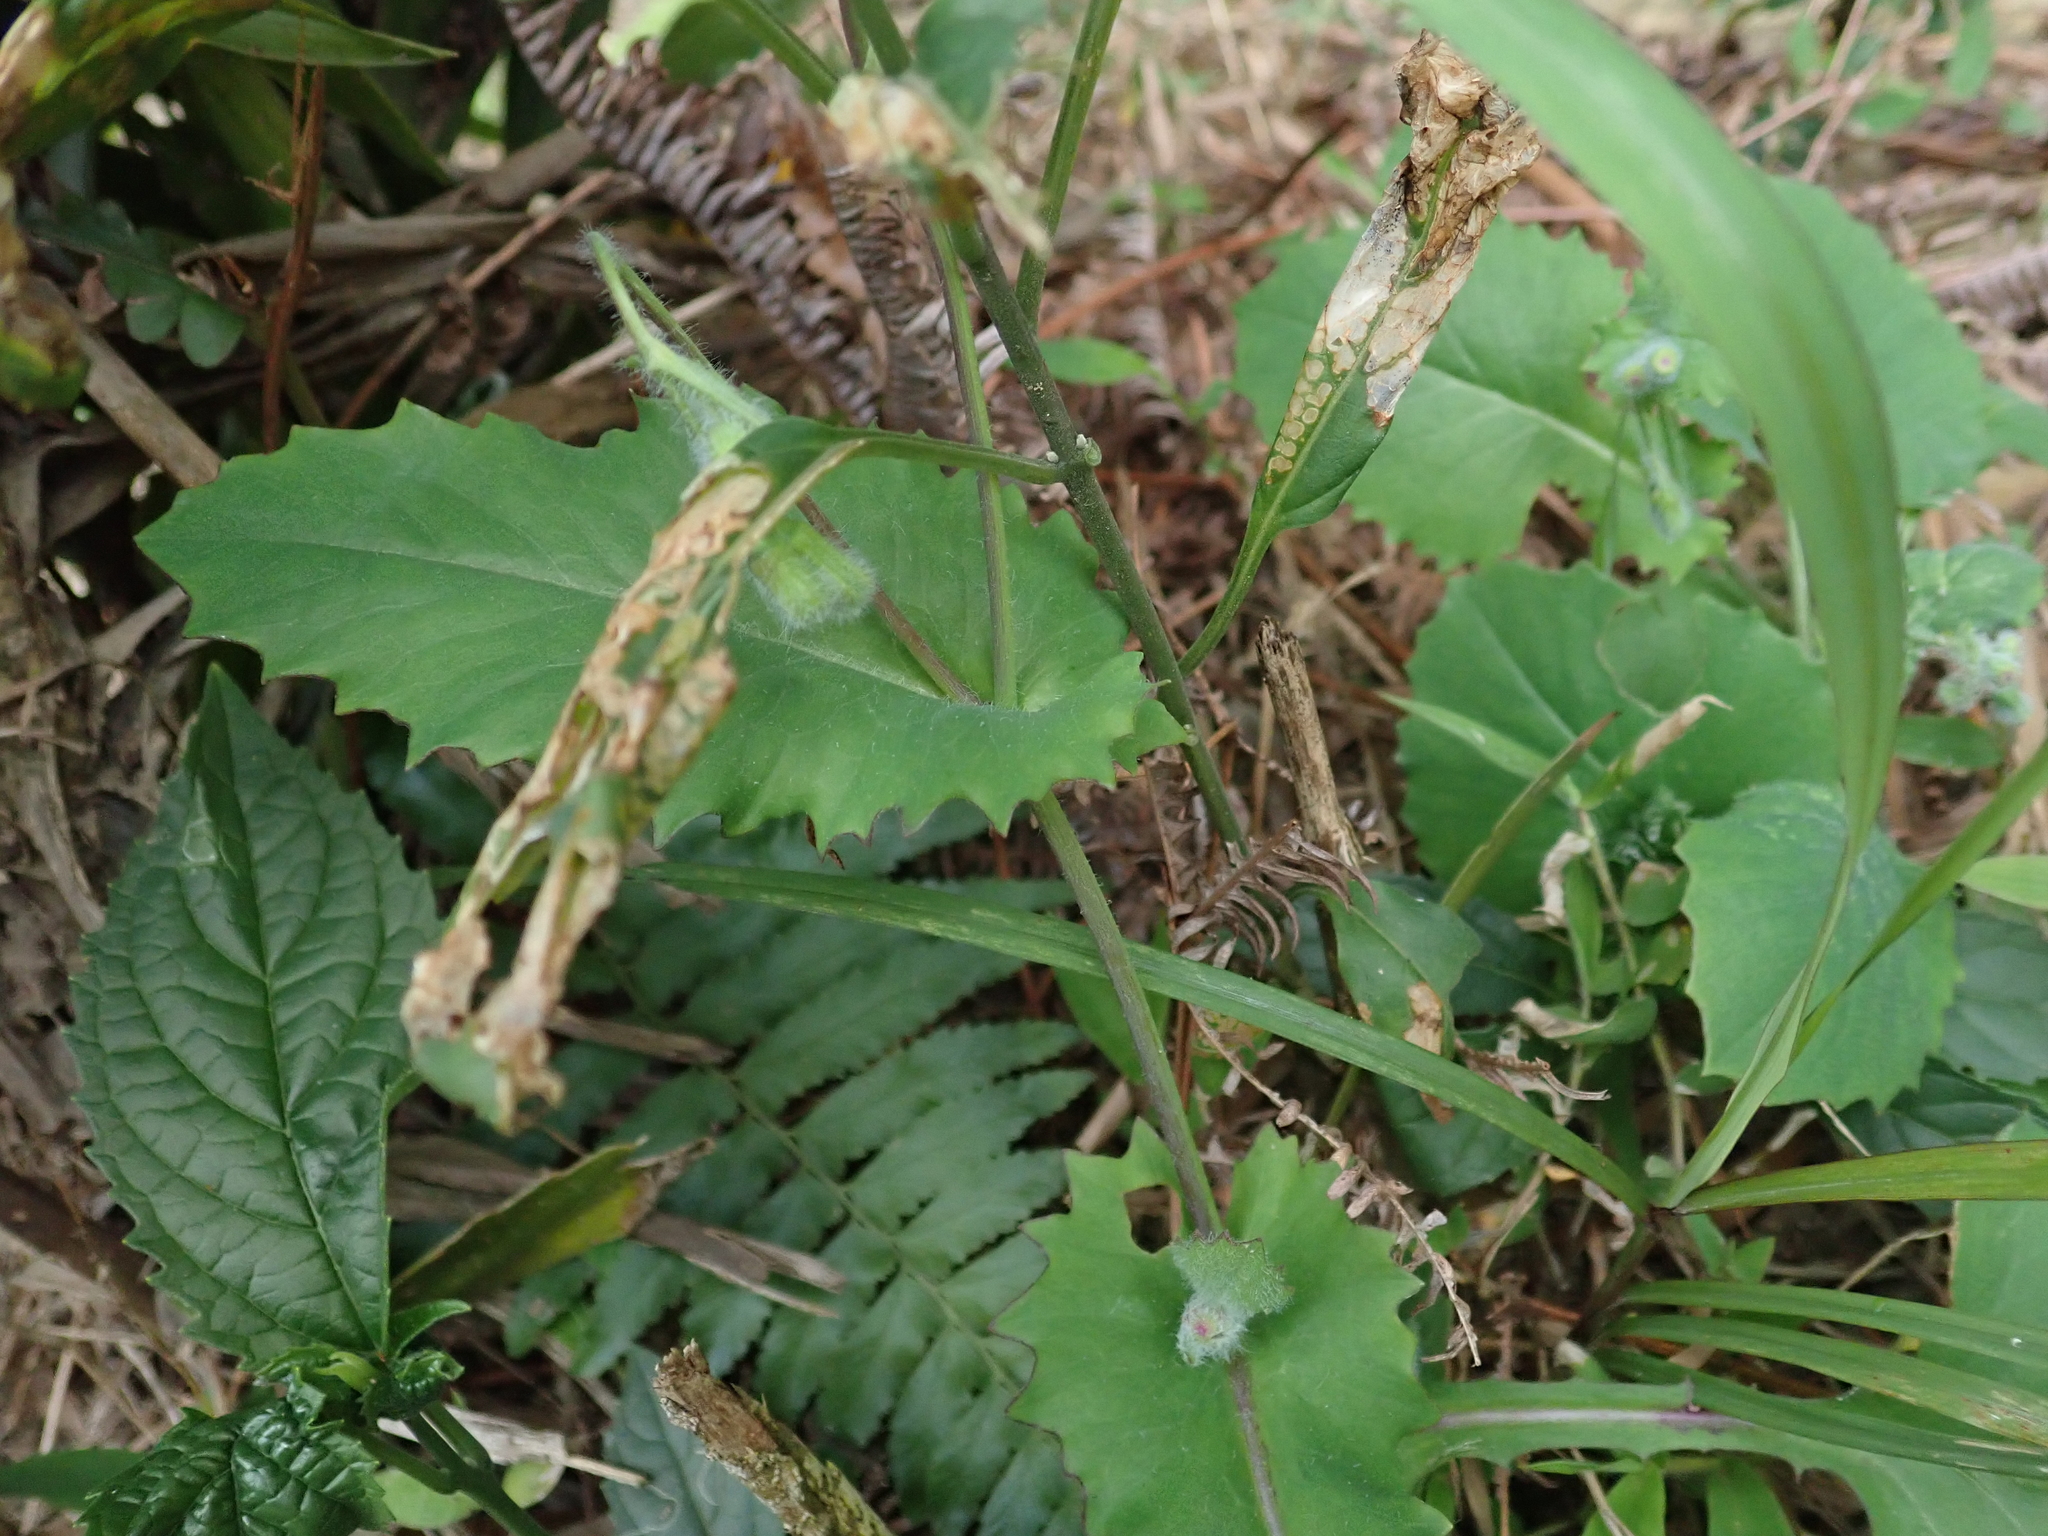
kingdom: Plantae
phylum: Tracheophyta
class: Magnoliopsida
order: Asterales
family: Asteraceae
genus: Emilia
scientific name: Emilia praetermissa
